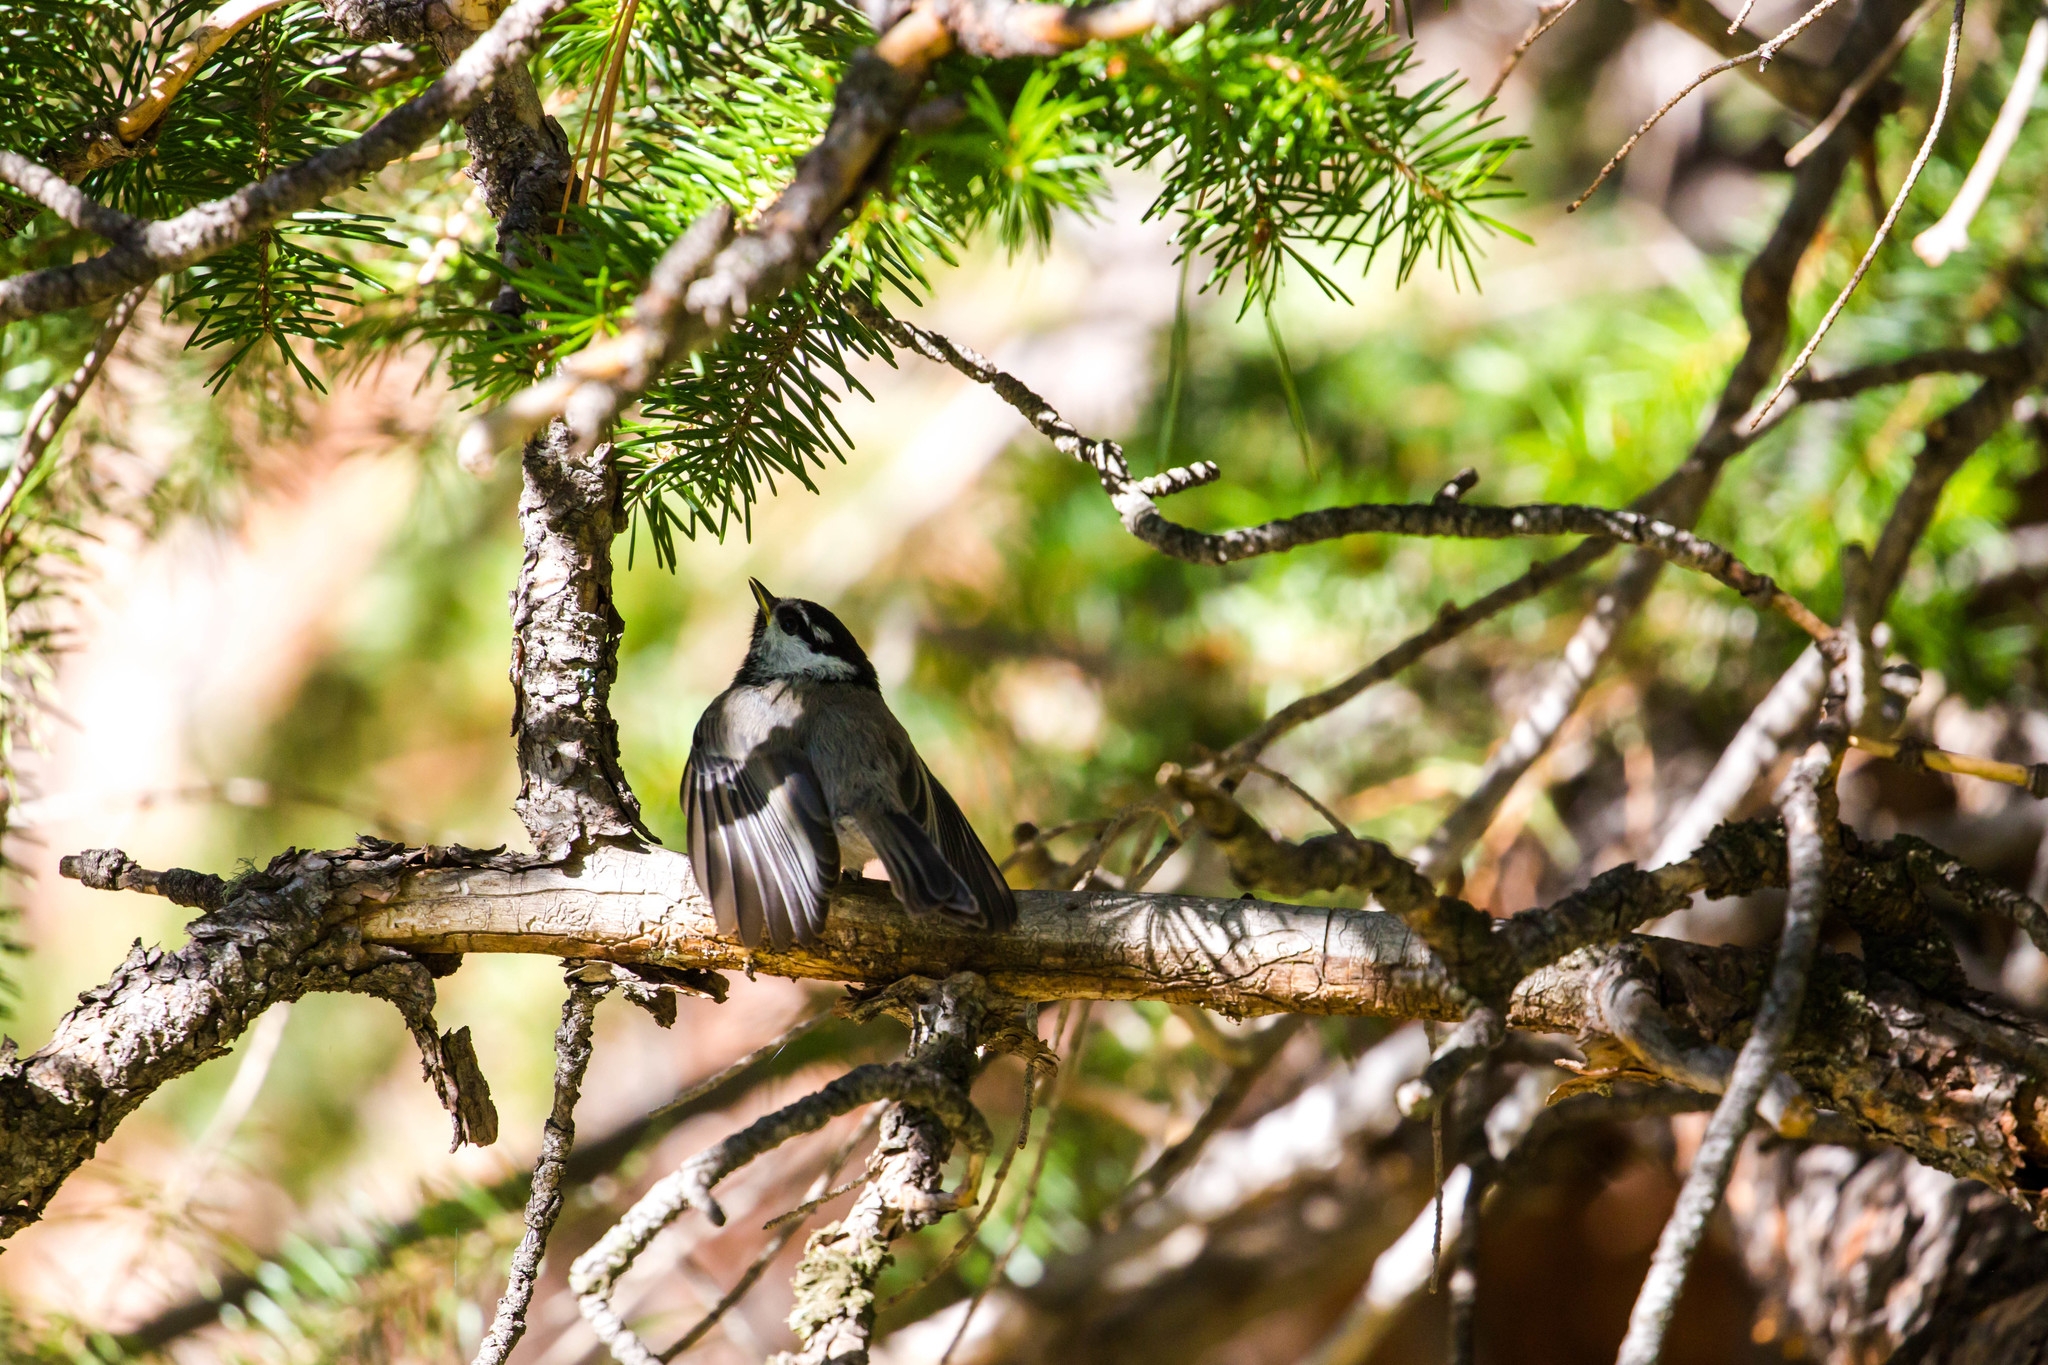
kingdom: Animalia
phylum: Chordata
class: Aves
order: Passeriformes
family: Paridae
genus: Poecile
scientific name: Poecile gambeli
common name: Mountain chickadee
